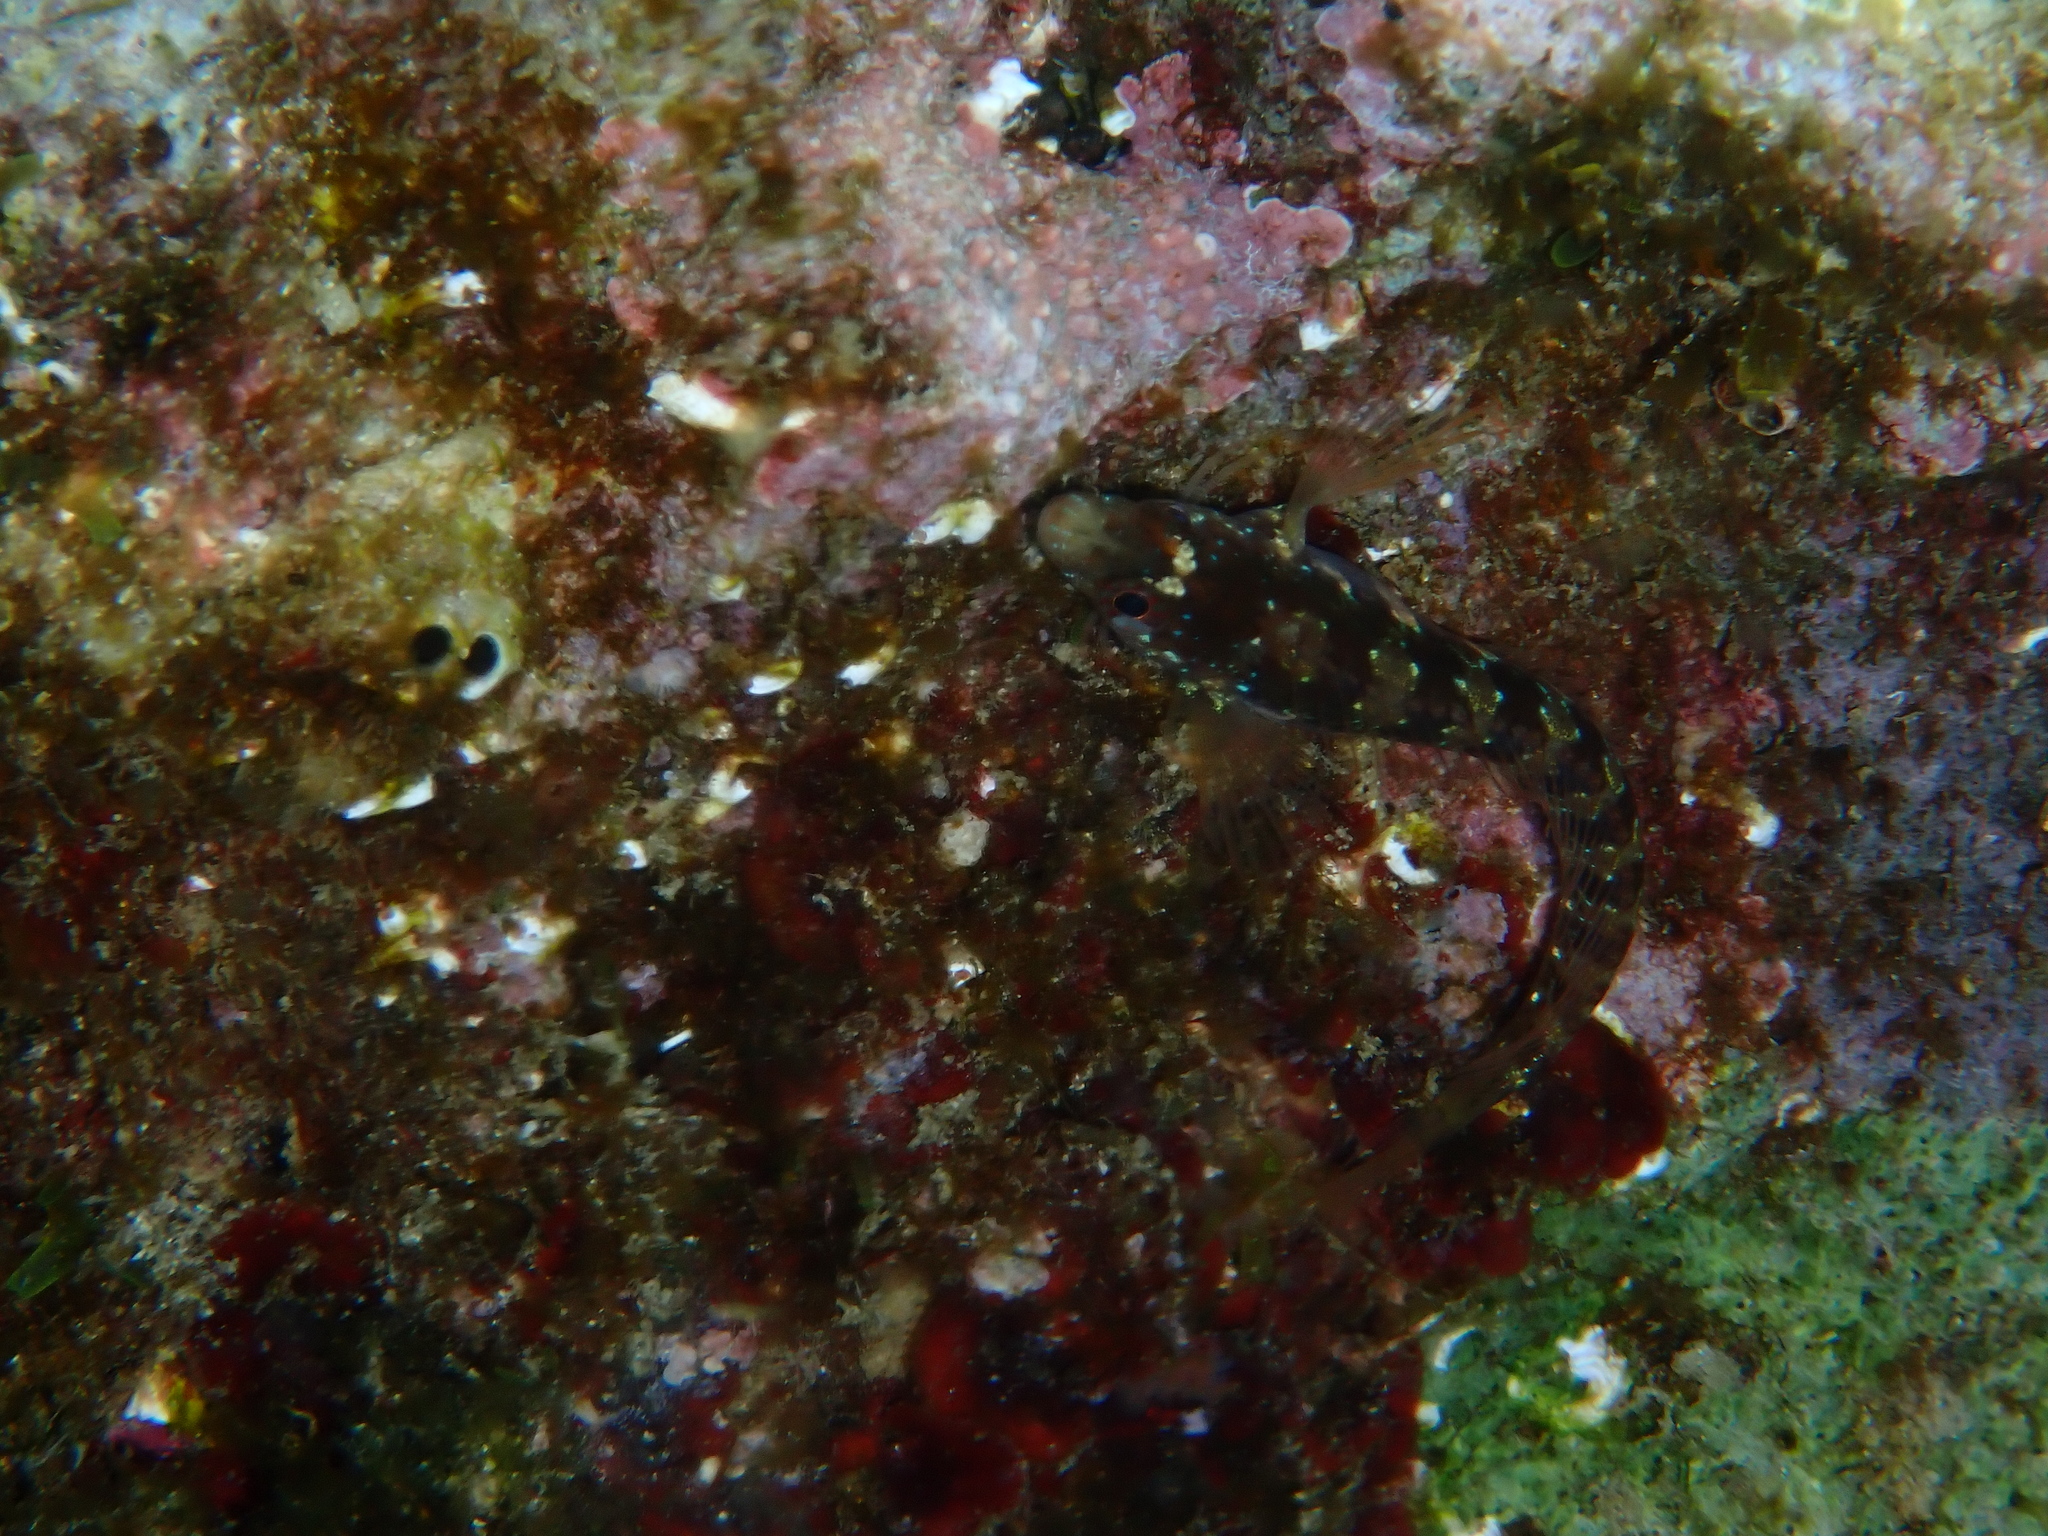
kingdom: Animalia
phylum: Chordata
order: Perciformes
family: Blenniidae
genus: Parablennius
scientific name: Parablennius rouxi
